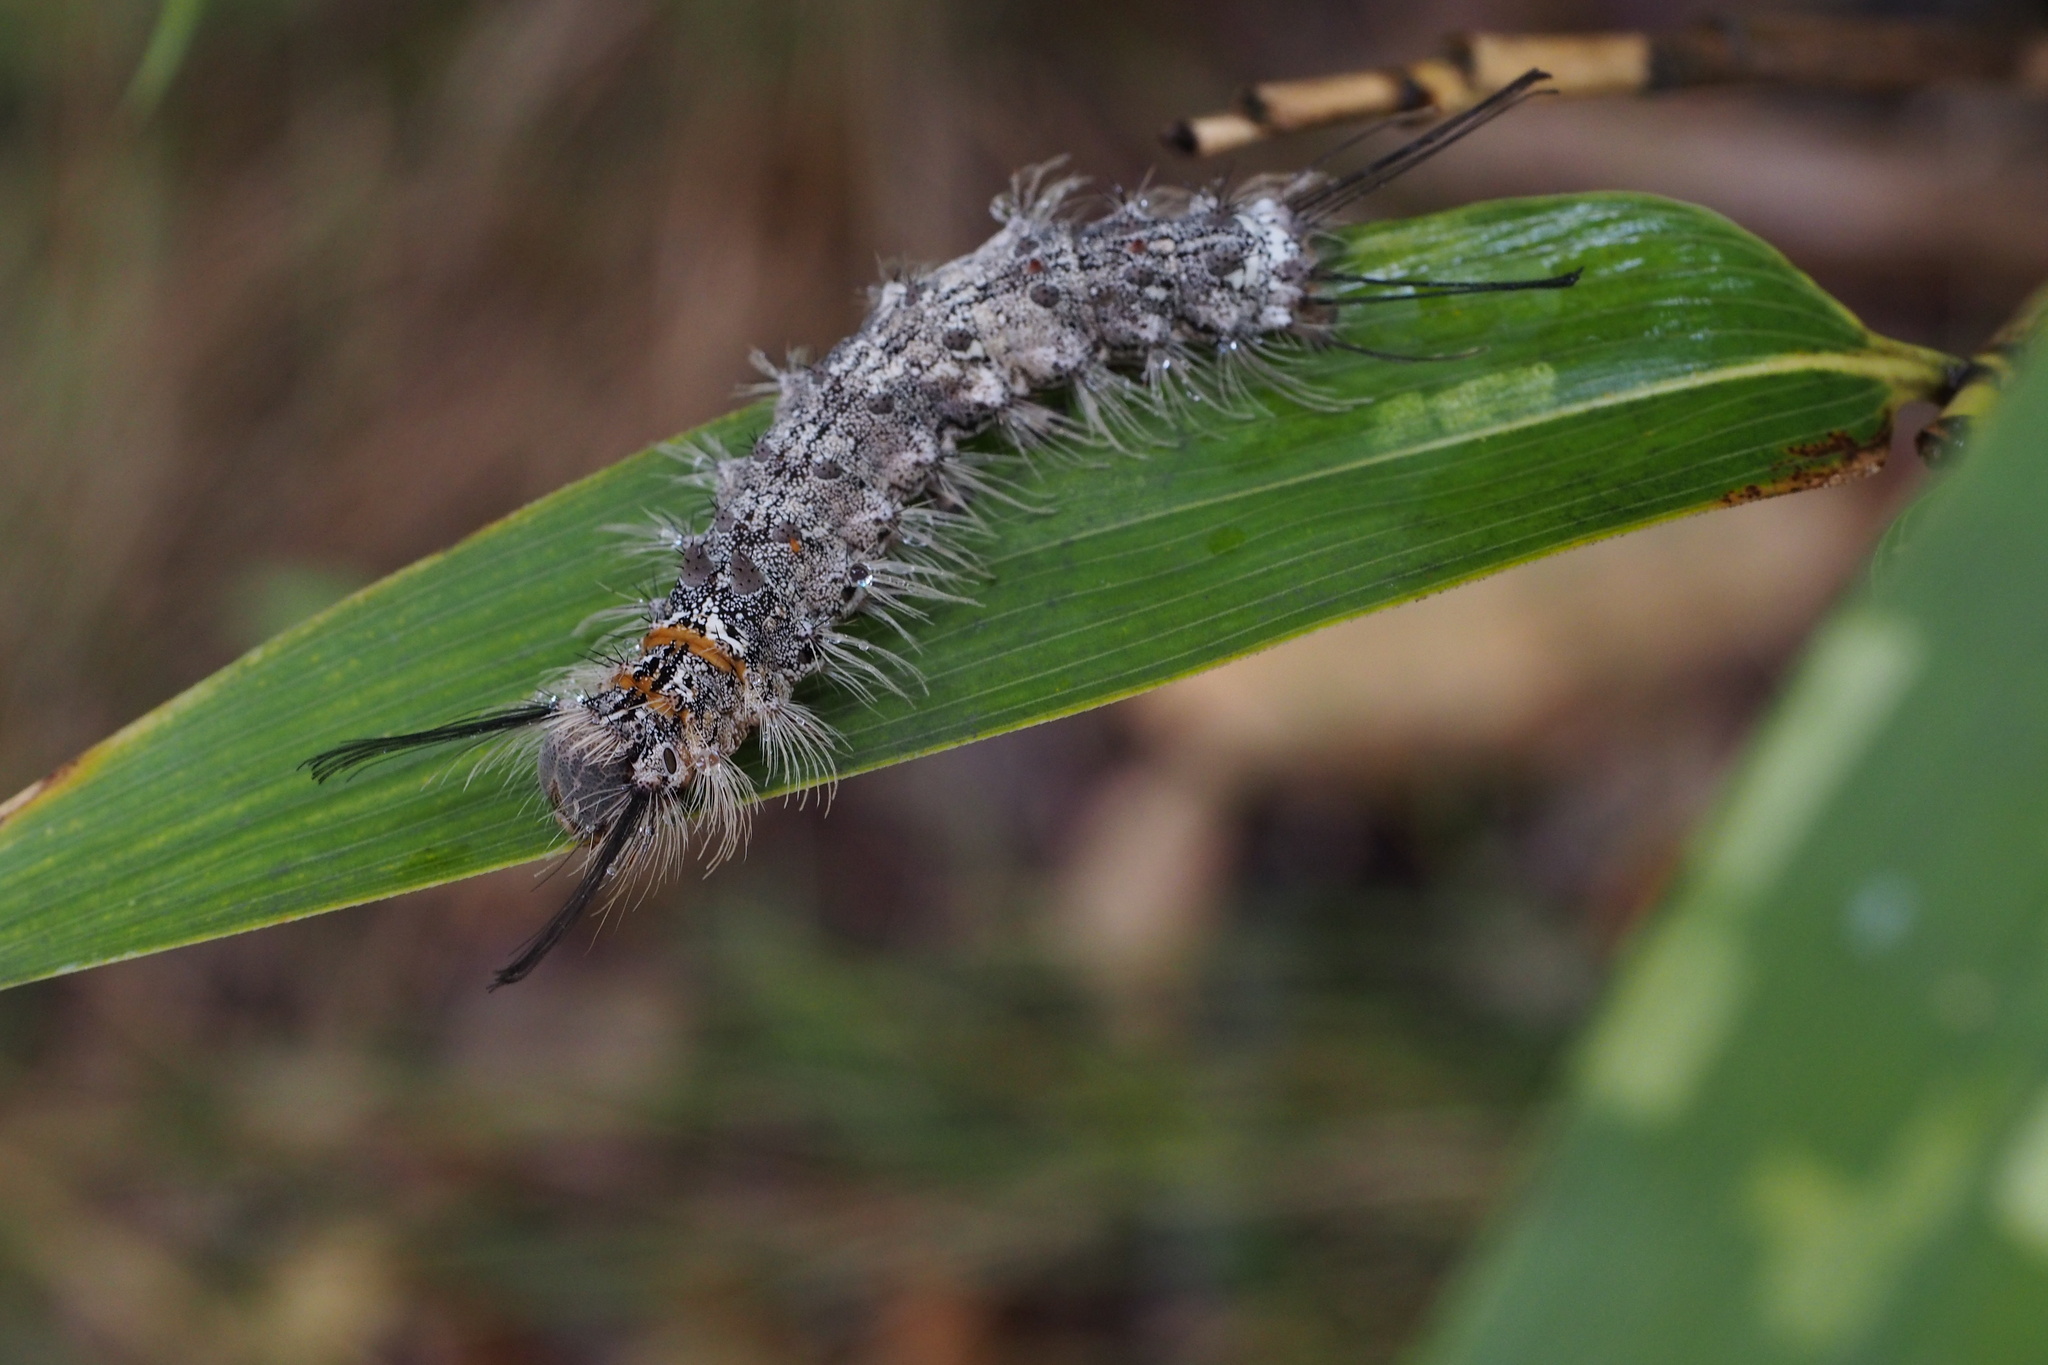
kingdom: Animalia
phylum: Arthropoda
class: Insecta
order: Lepidoptera
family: Erebidae
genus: Lymantria
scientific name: Lymantria mathura
